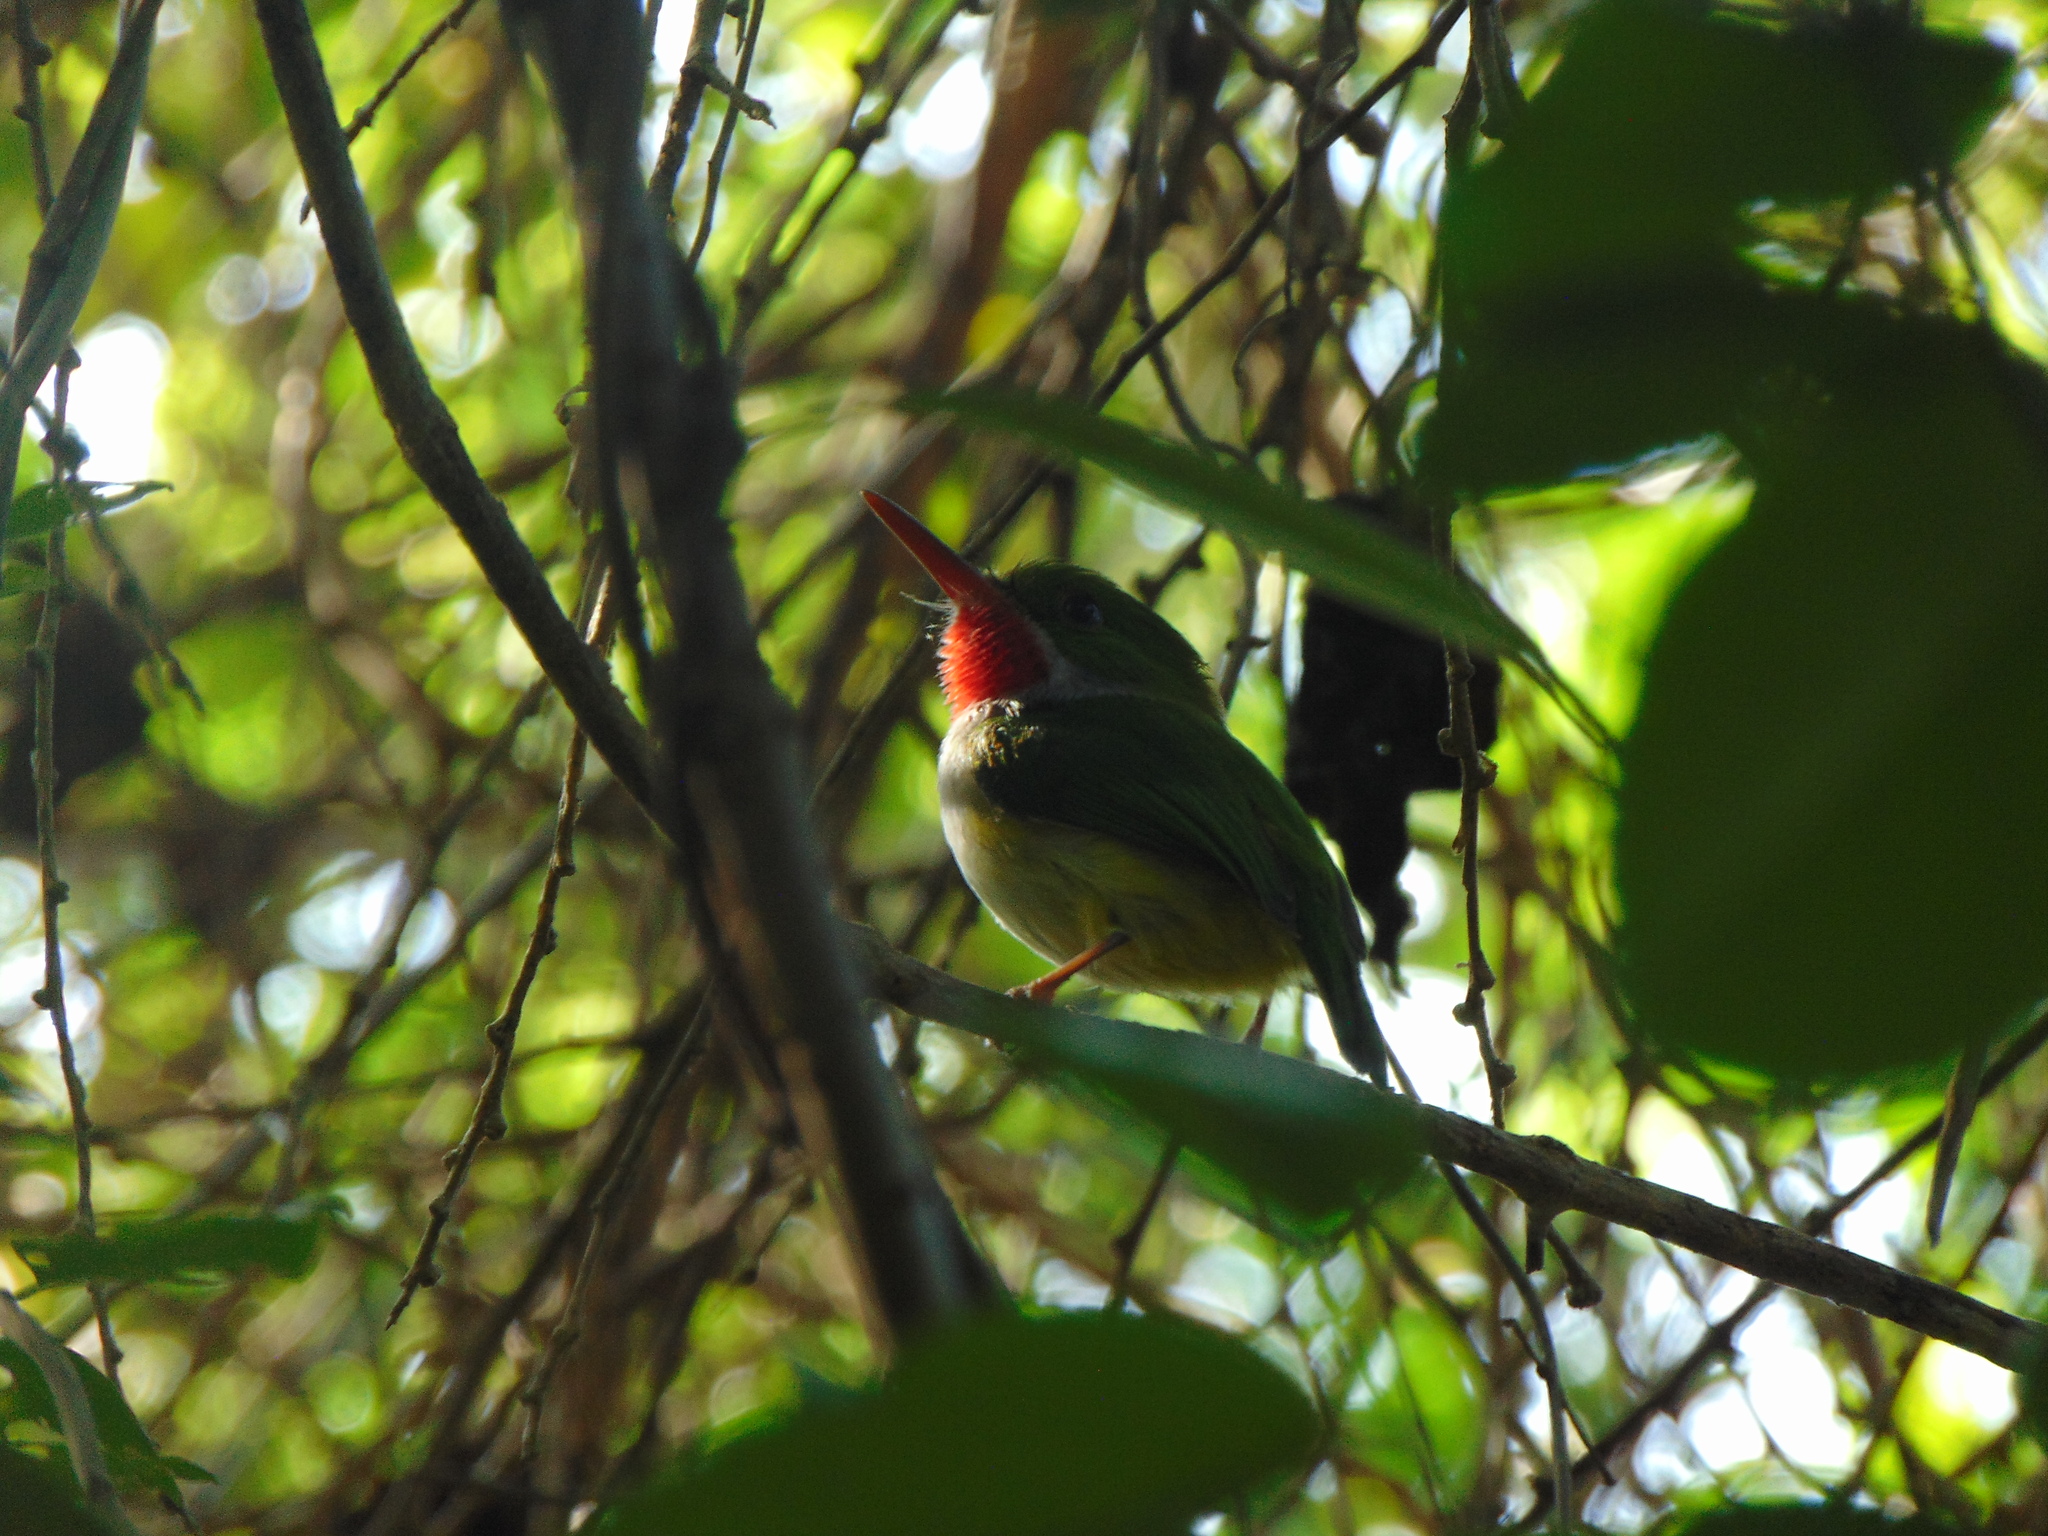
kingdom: Animalia
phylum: Chordata
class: Aves
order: Coraciiformes
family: Todidae
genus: Todus
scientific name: Todus mexicanus
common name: Puerto rican tody
